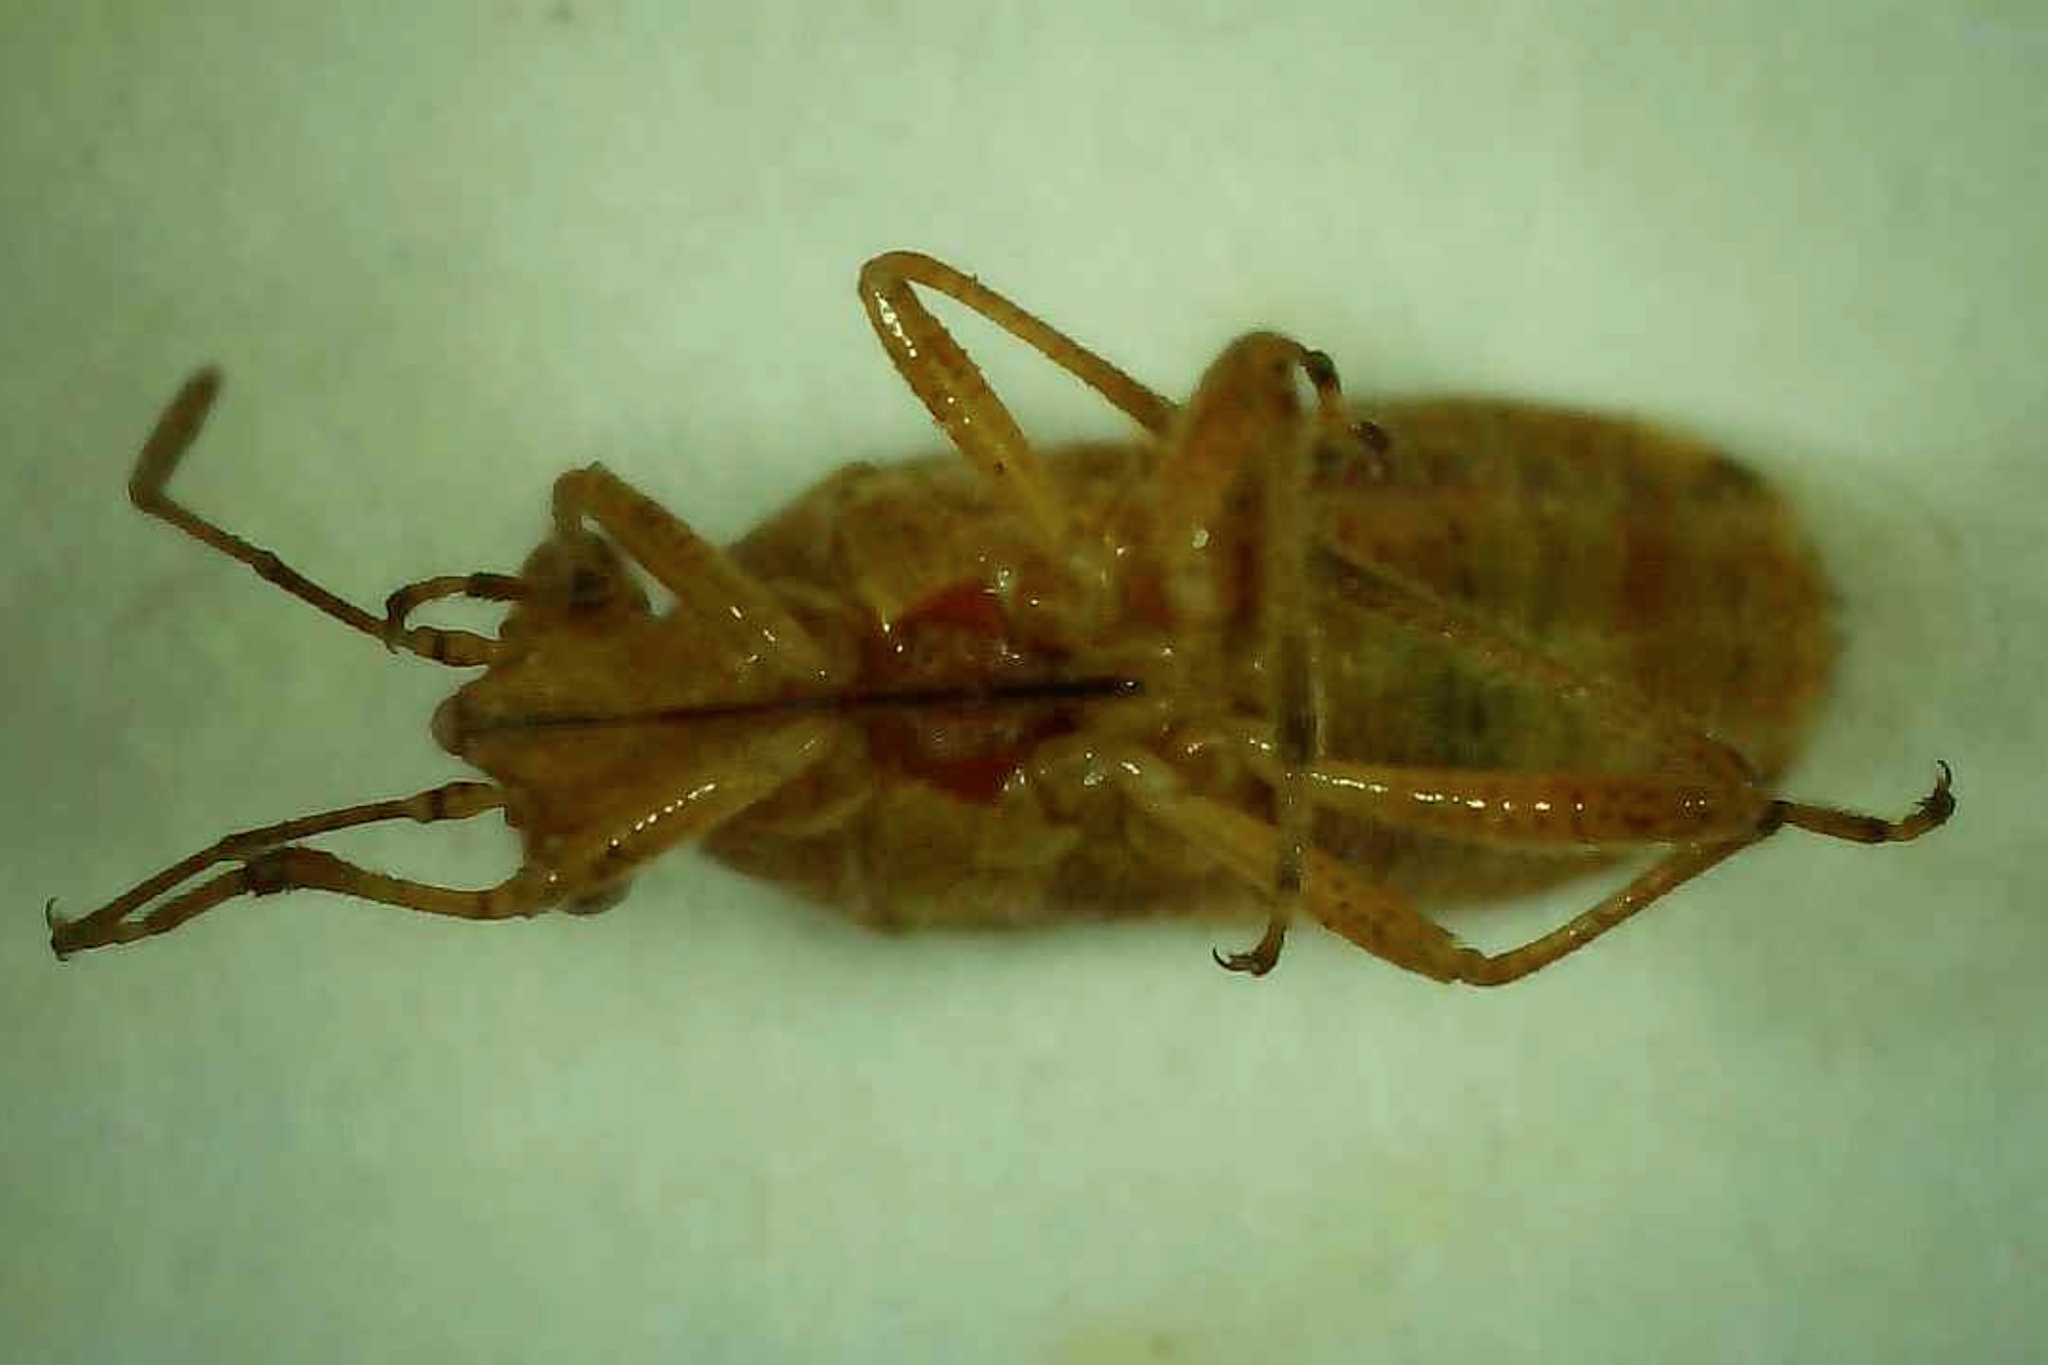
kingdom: Animalia
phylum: Arthropoda
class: Insecta
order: Hemiptera
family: Rhopalidae
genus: Liorhyssus
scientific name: Liorhyssus hyalinus
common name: Scentless plant bug
